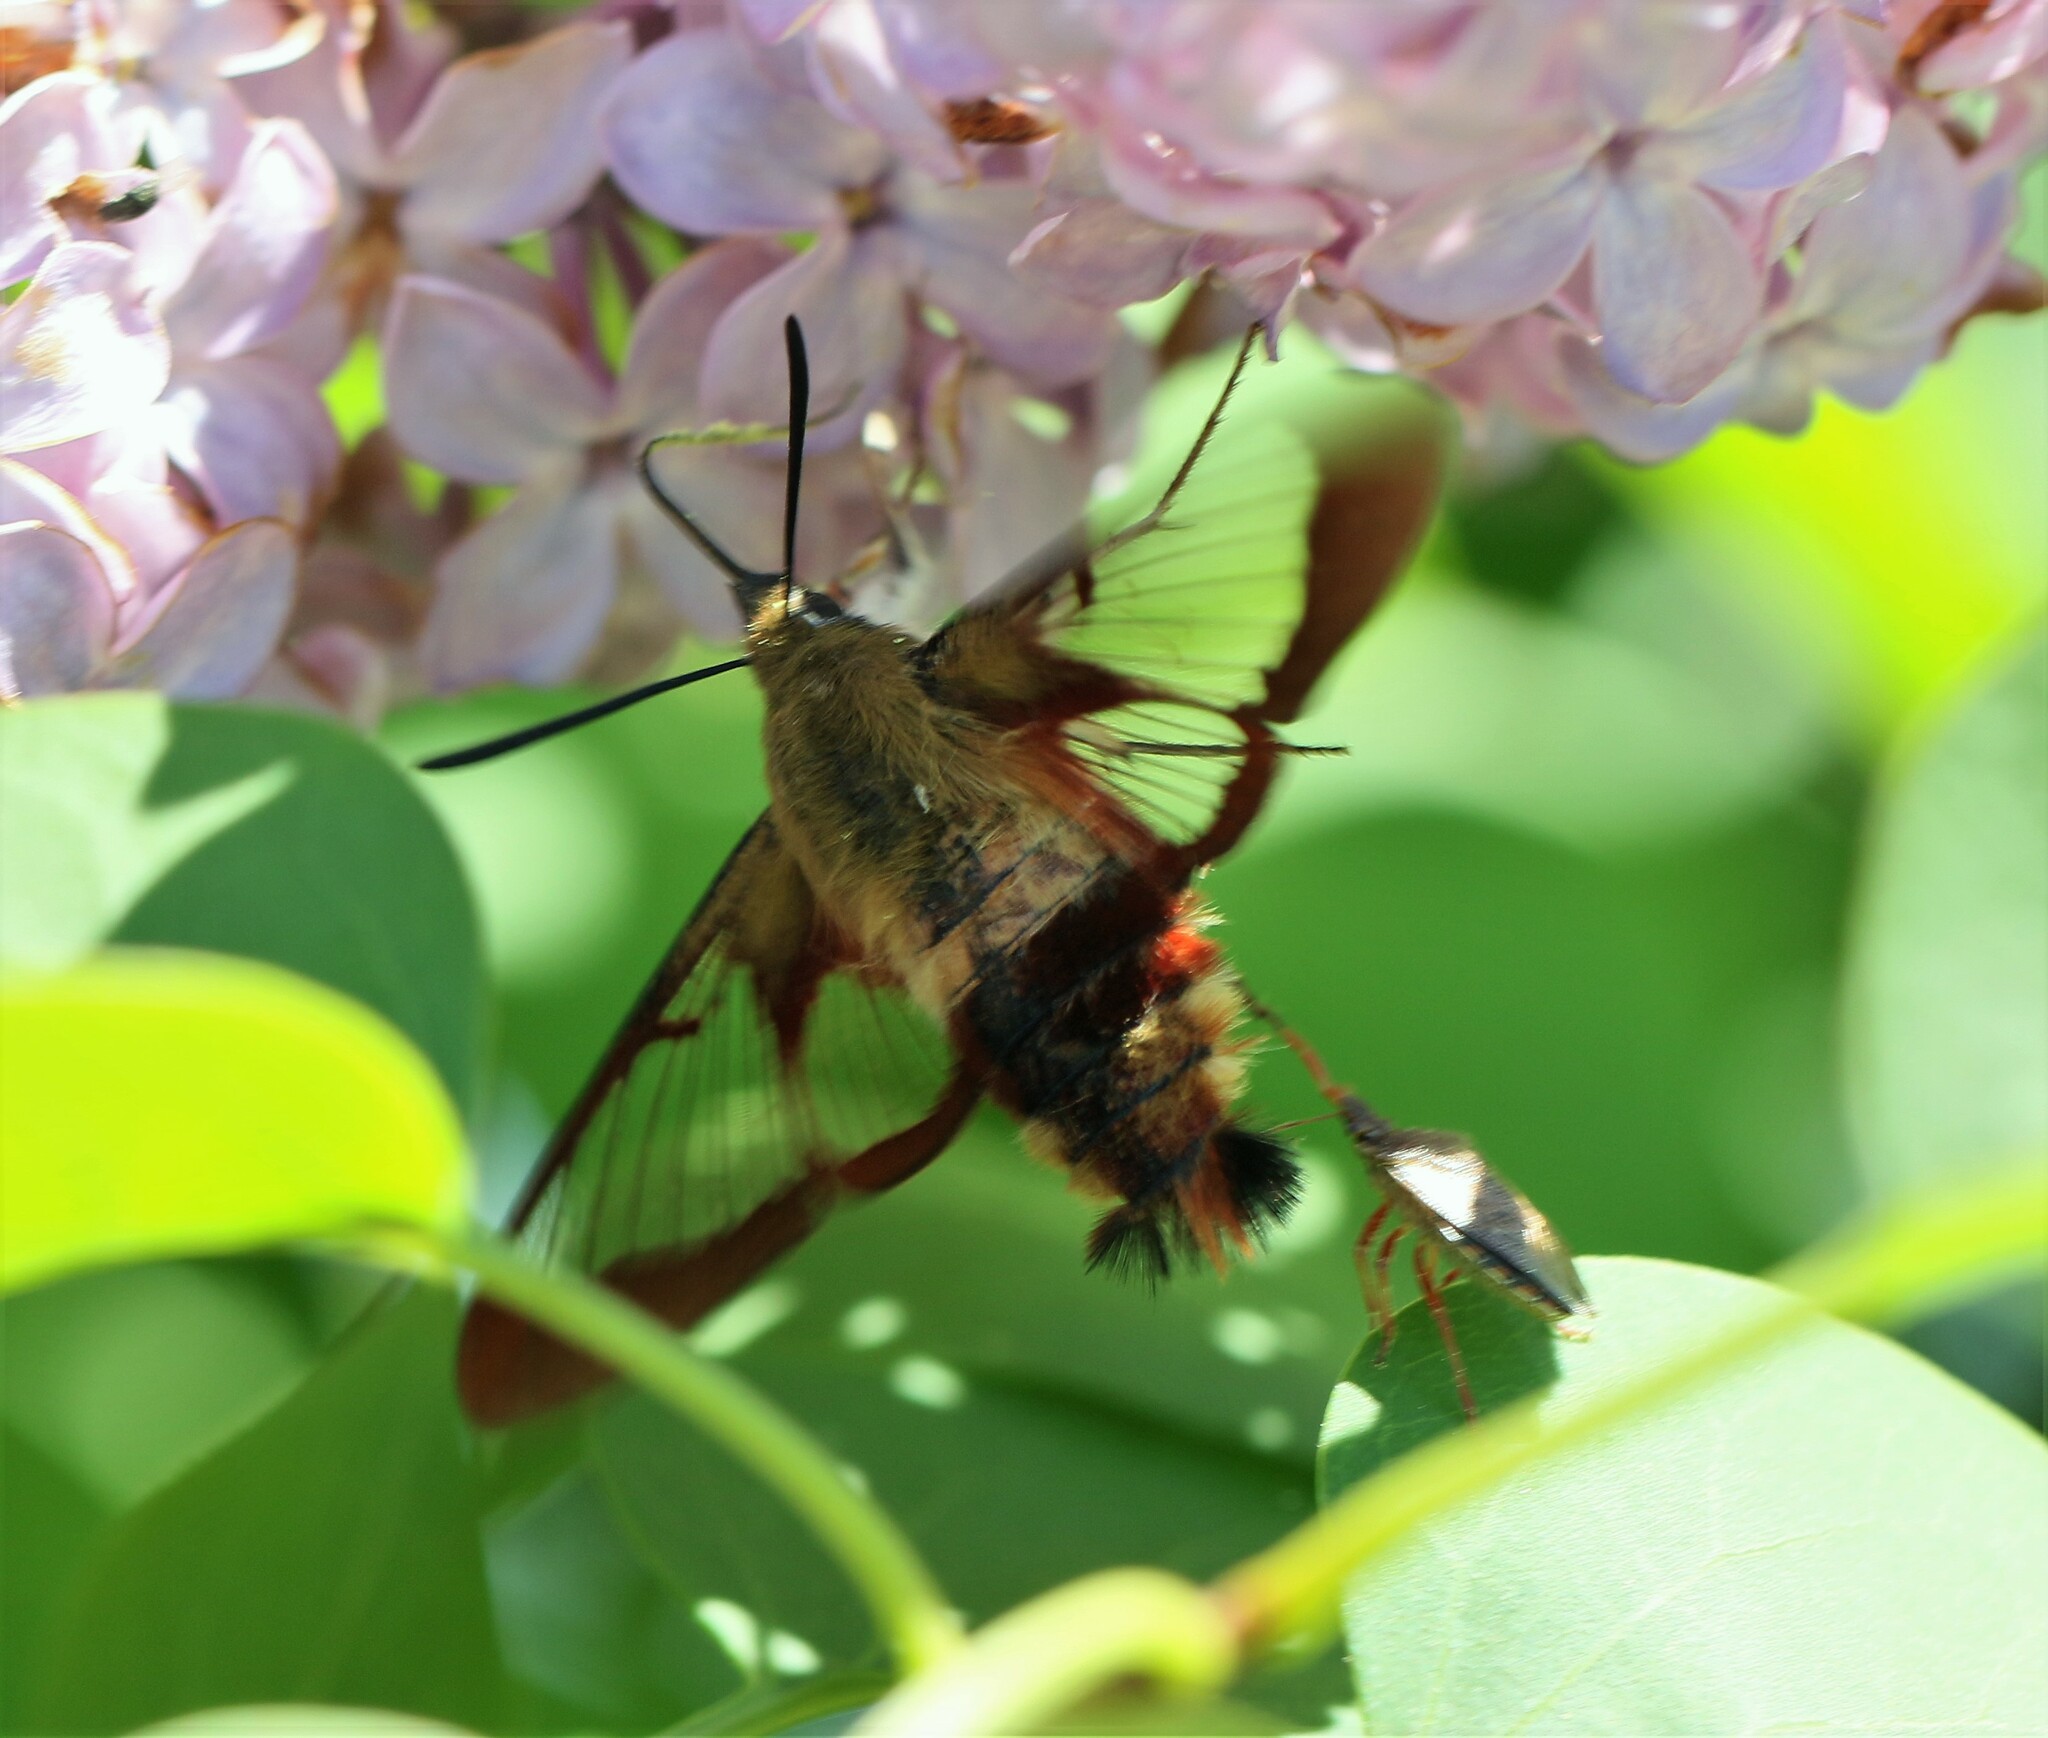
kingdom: Animalia
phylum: Arthropoda
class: Insecta
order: Lepidoptera
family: Sphingidae
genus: Hemaris
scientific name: Hemaris thysbe
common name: Common clear-wing
